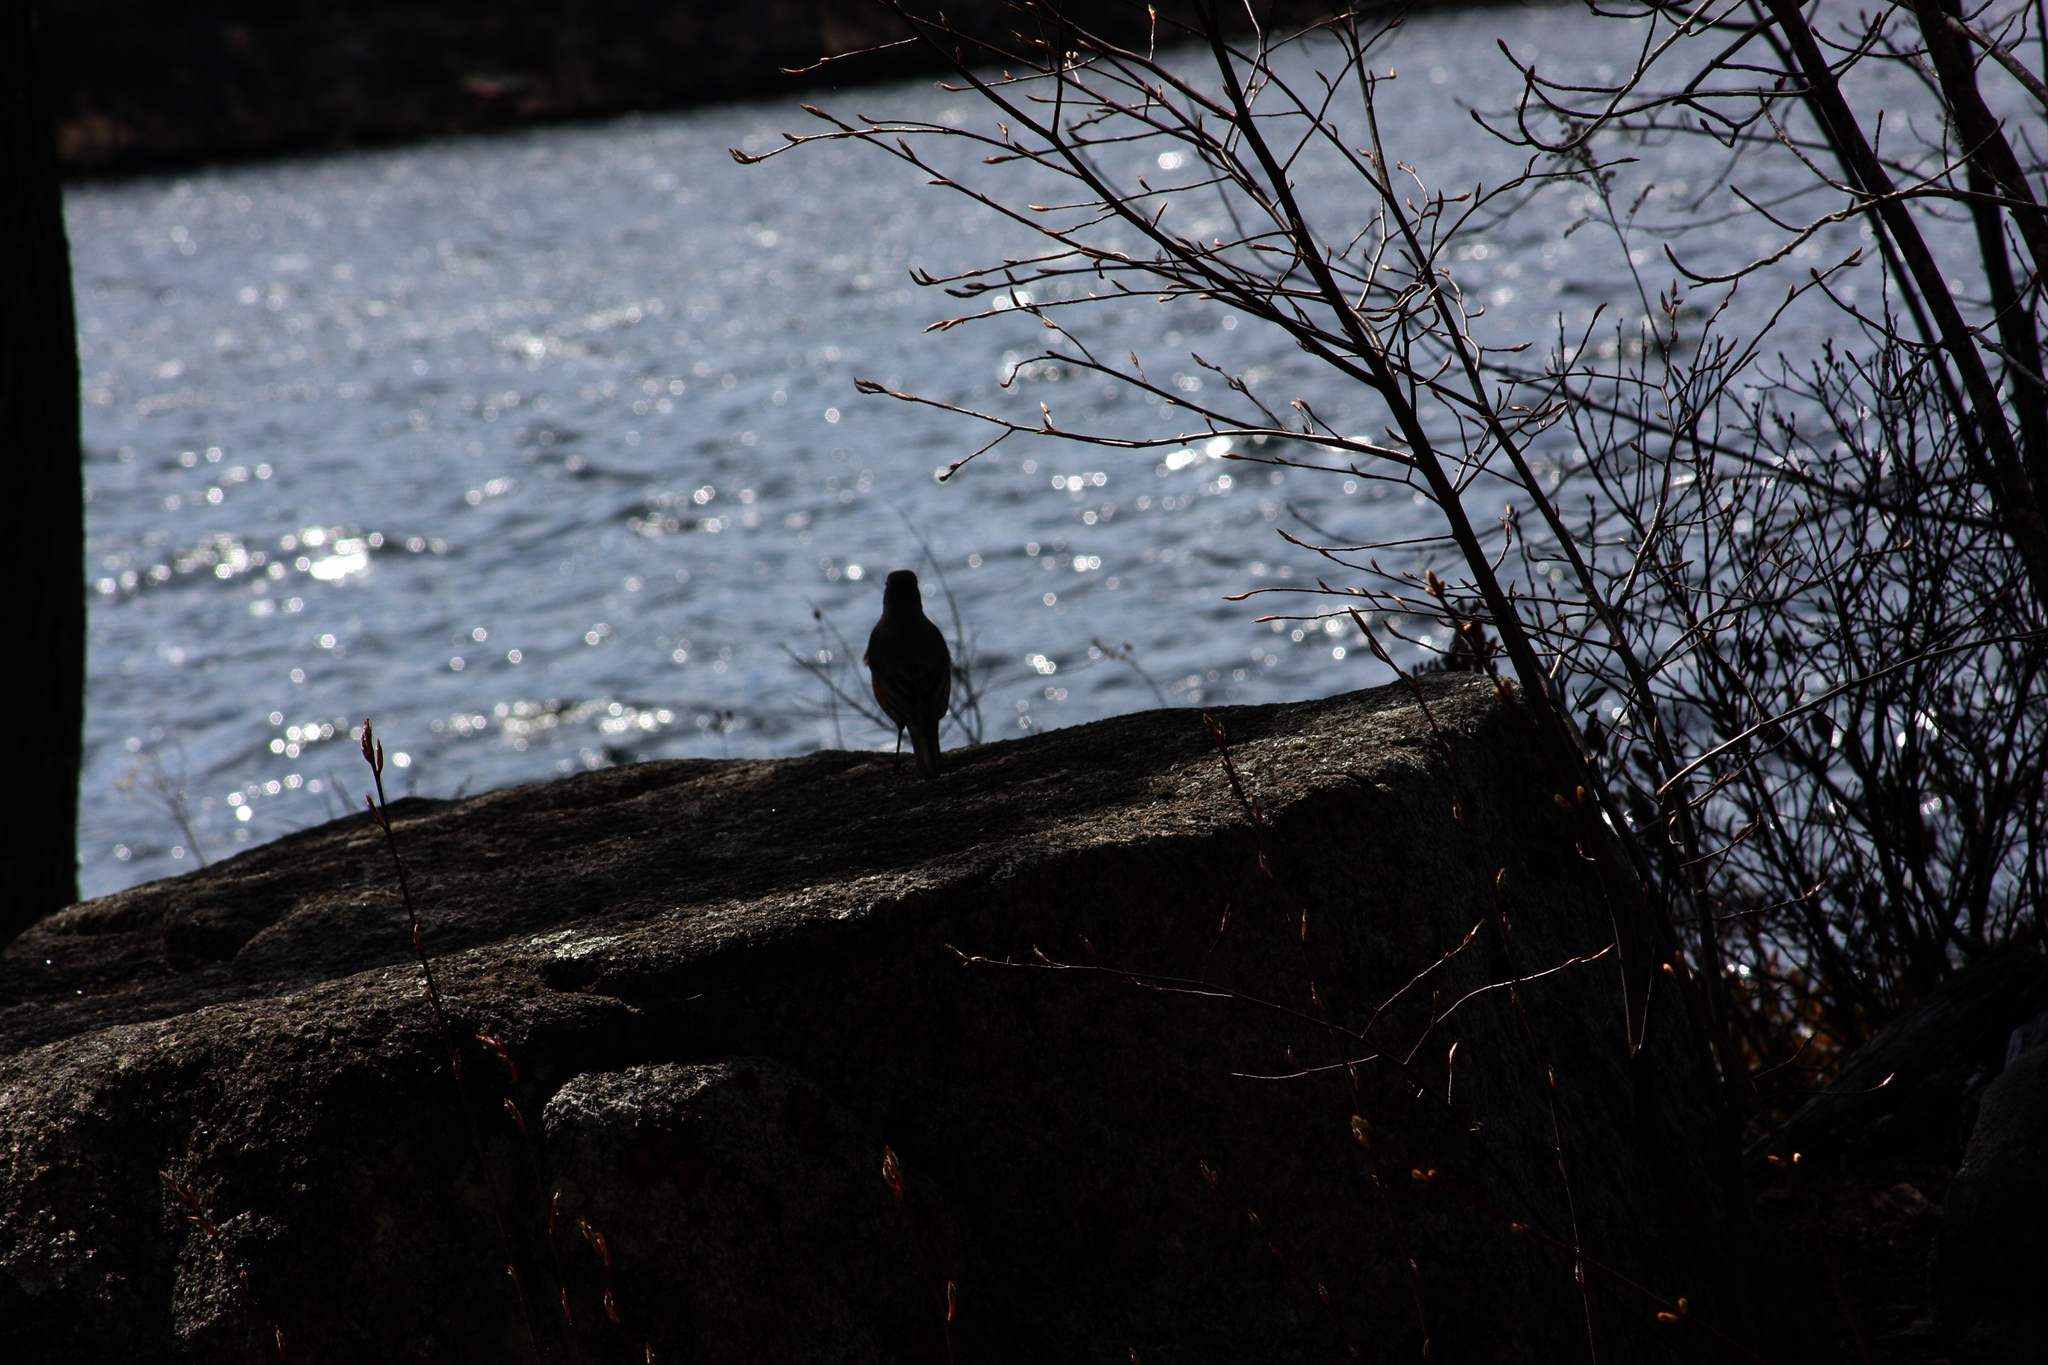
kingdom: Animalia
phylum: Chordata
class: Aves
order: Passeriformes
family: Turdidae
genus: Turdus
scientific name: Turdus migratorius
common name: American robin
